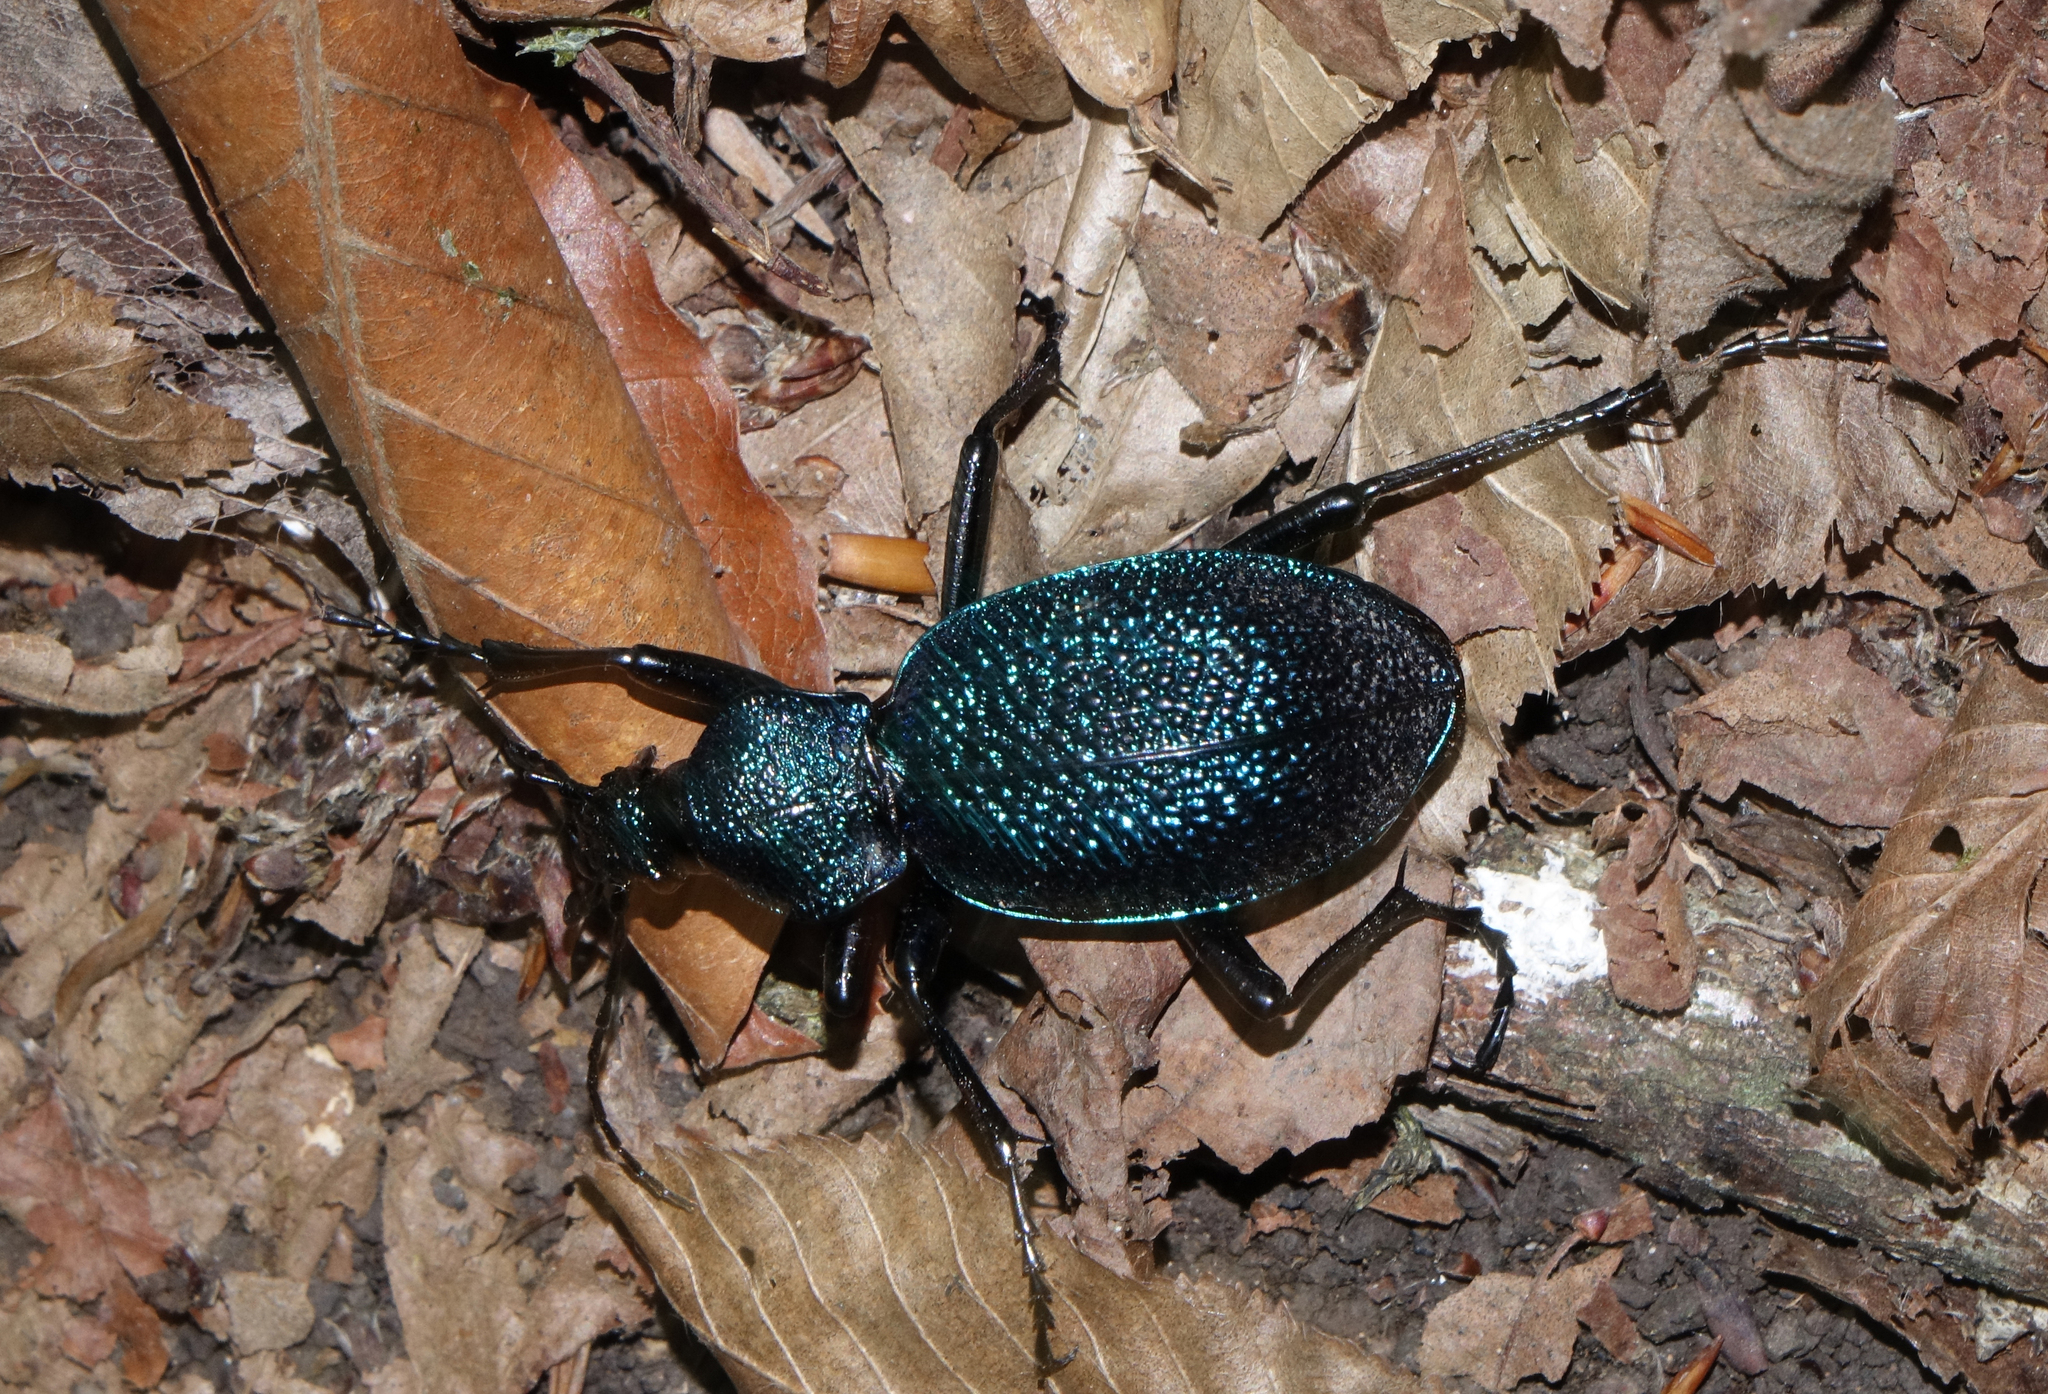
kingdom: Animalia
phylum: Arthropoda
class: Insecta
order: Coleoptera
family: Carabidae
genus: Carabus
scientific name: Carabus scabrosus
